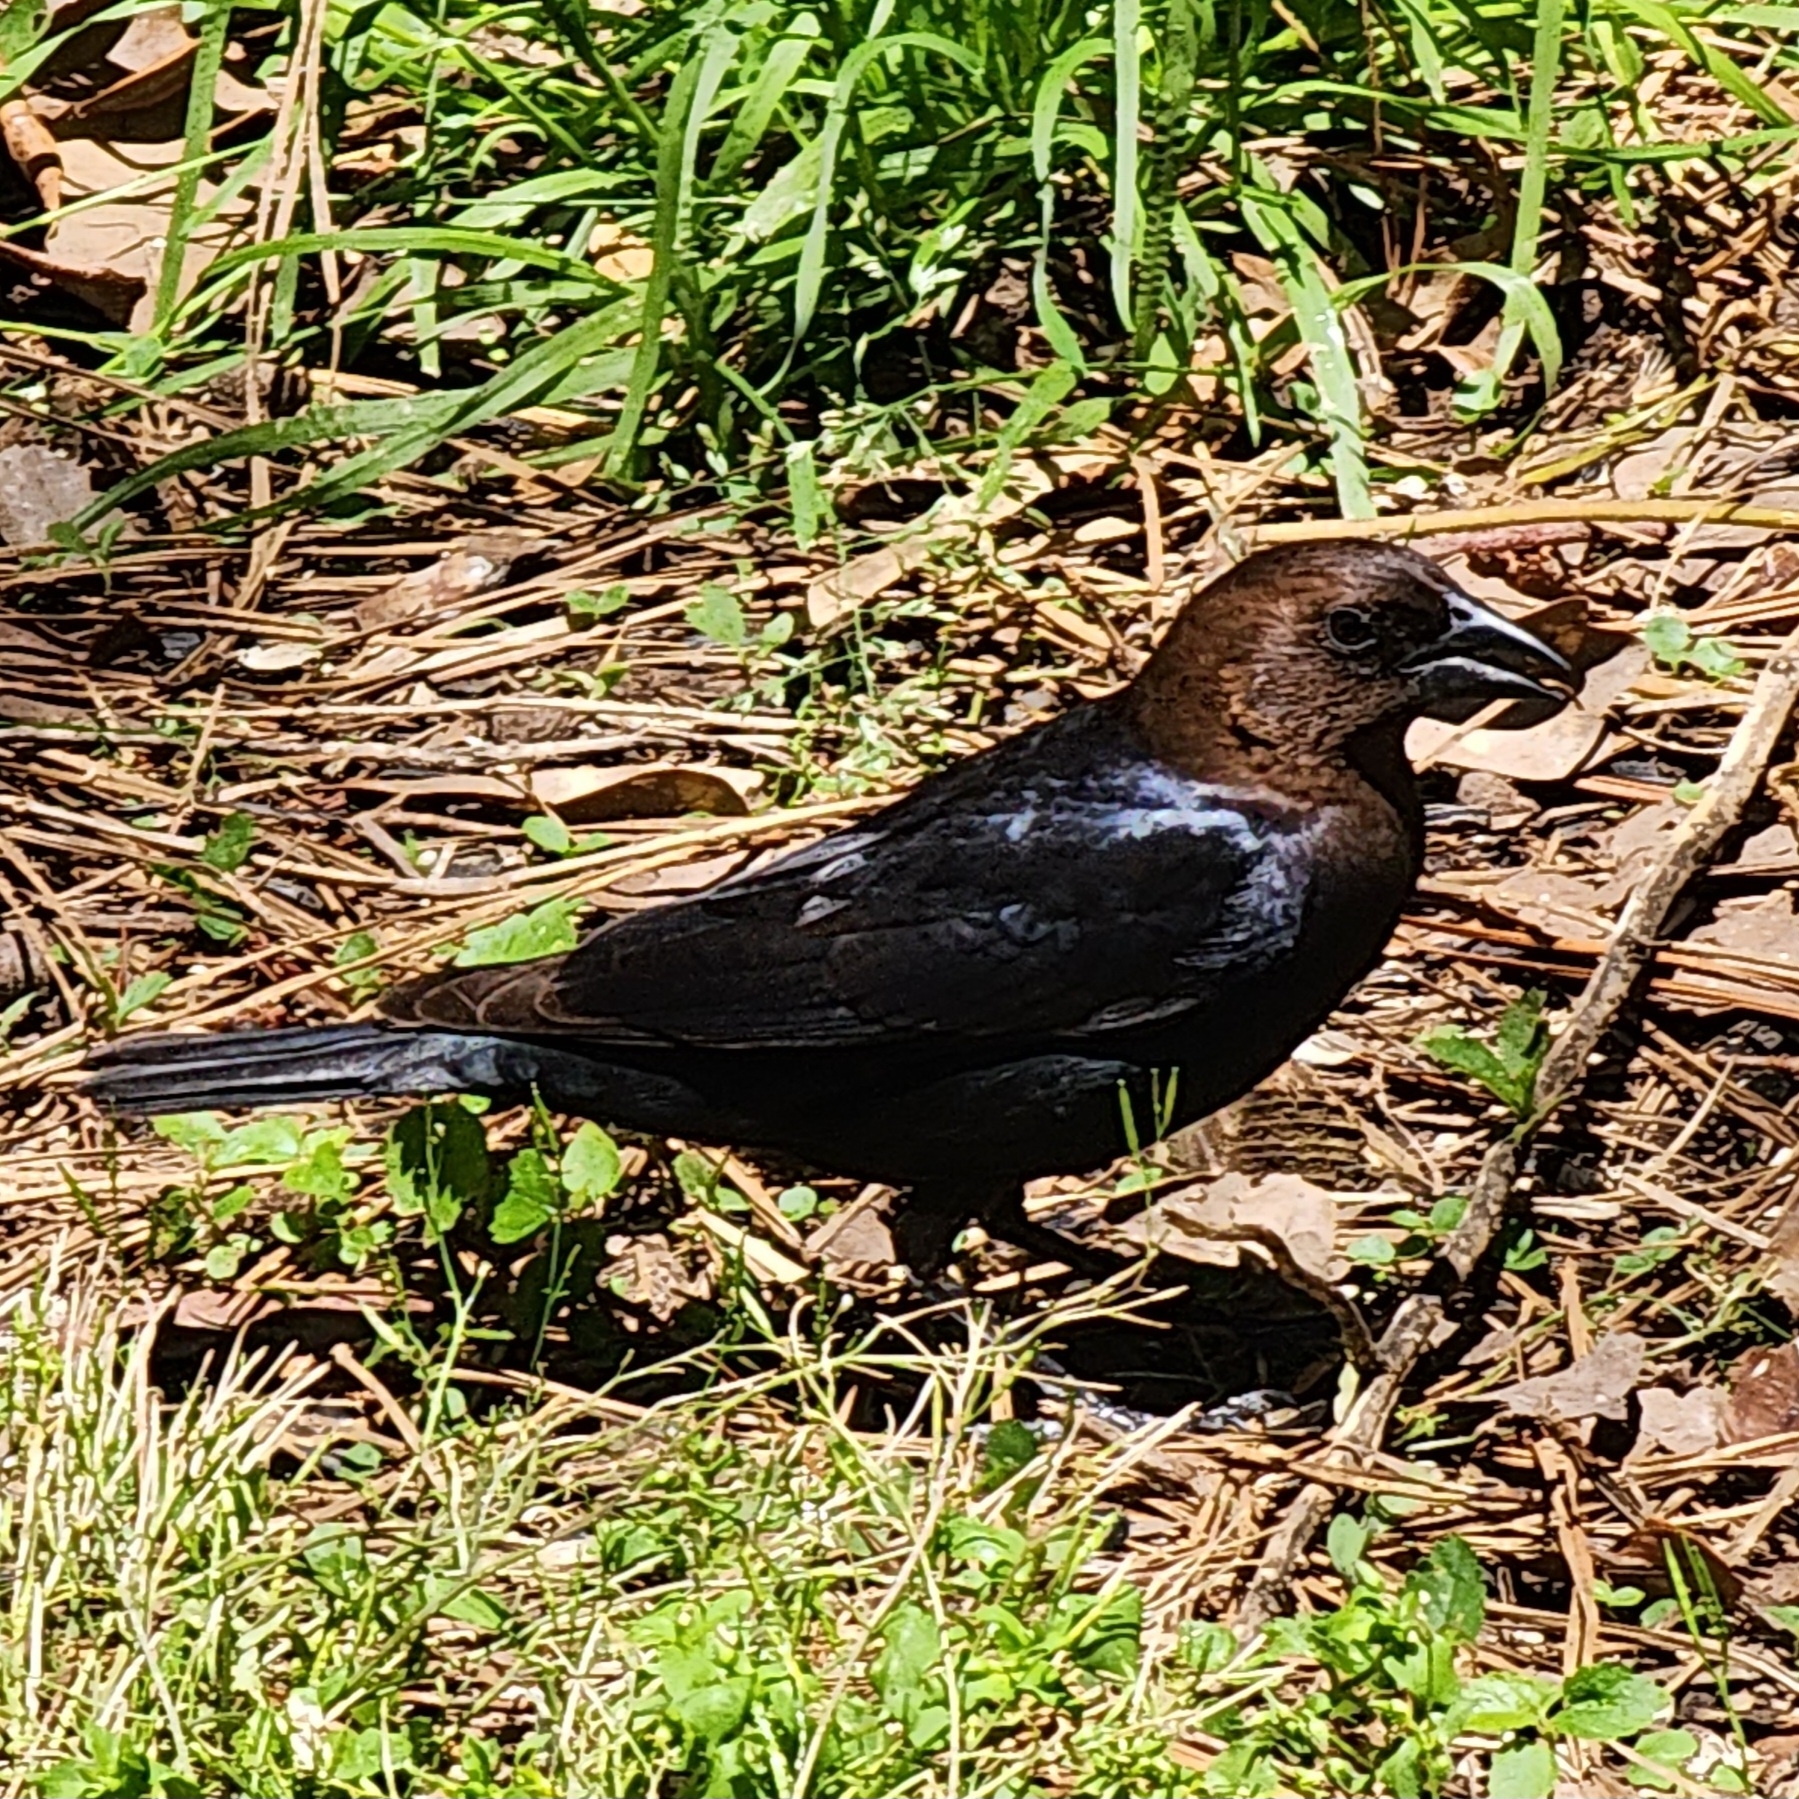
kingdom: Animalia
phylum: Chordata
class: Aves
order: Passeriformes
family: Icteridae
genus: Molothrus
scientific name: Molothrus ater
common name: Brown-headed cowbird
